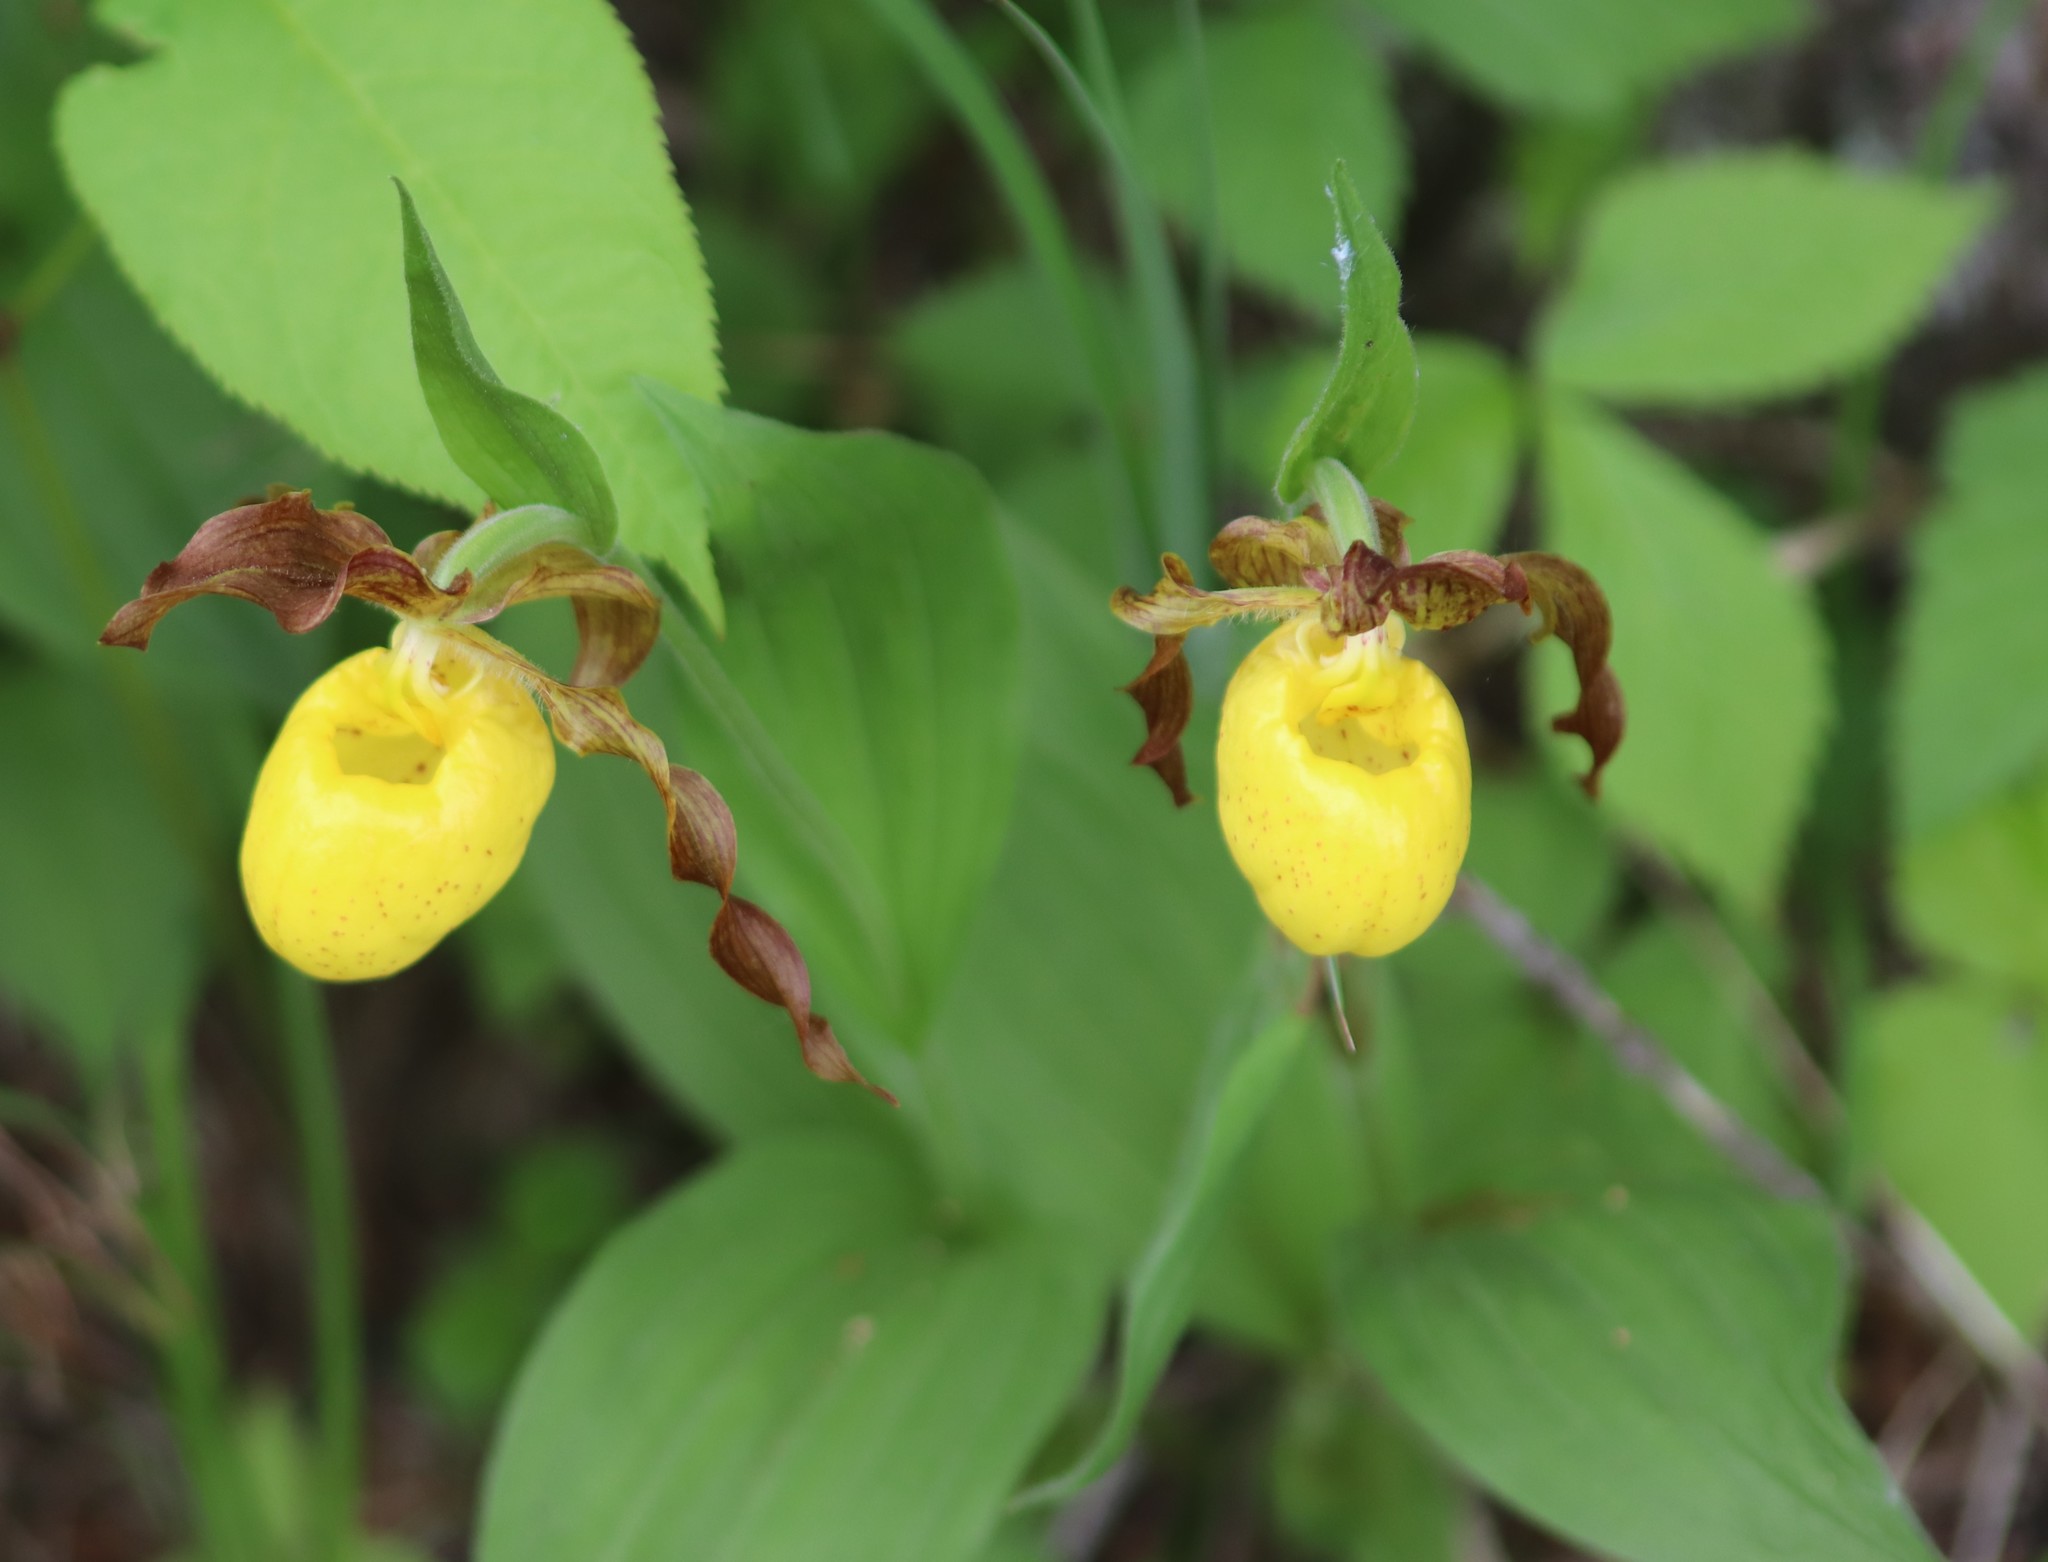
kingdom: Plantae
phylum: Tracheophyta
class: Liliopsida
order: Asparagales
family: Orchidaceae
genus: Cypripedium
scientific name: Cypripedium parviflorum
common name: American yellow lady's-slipper
